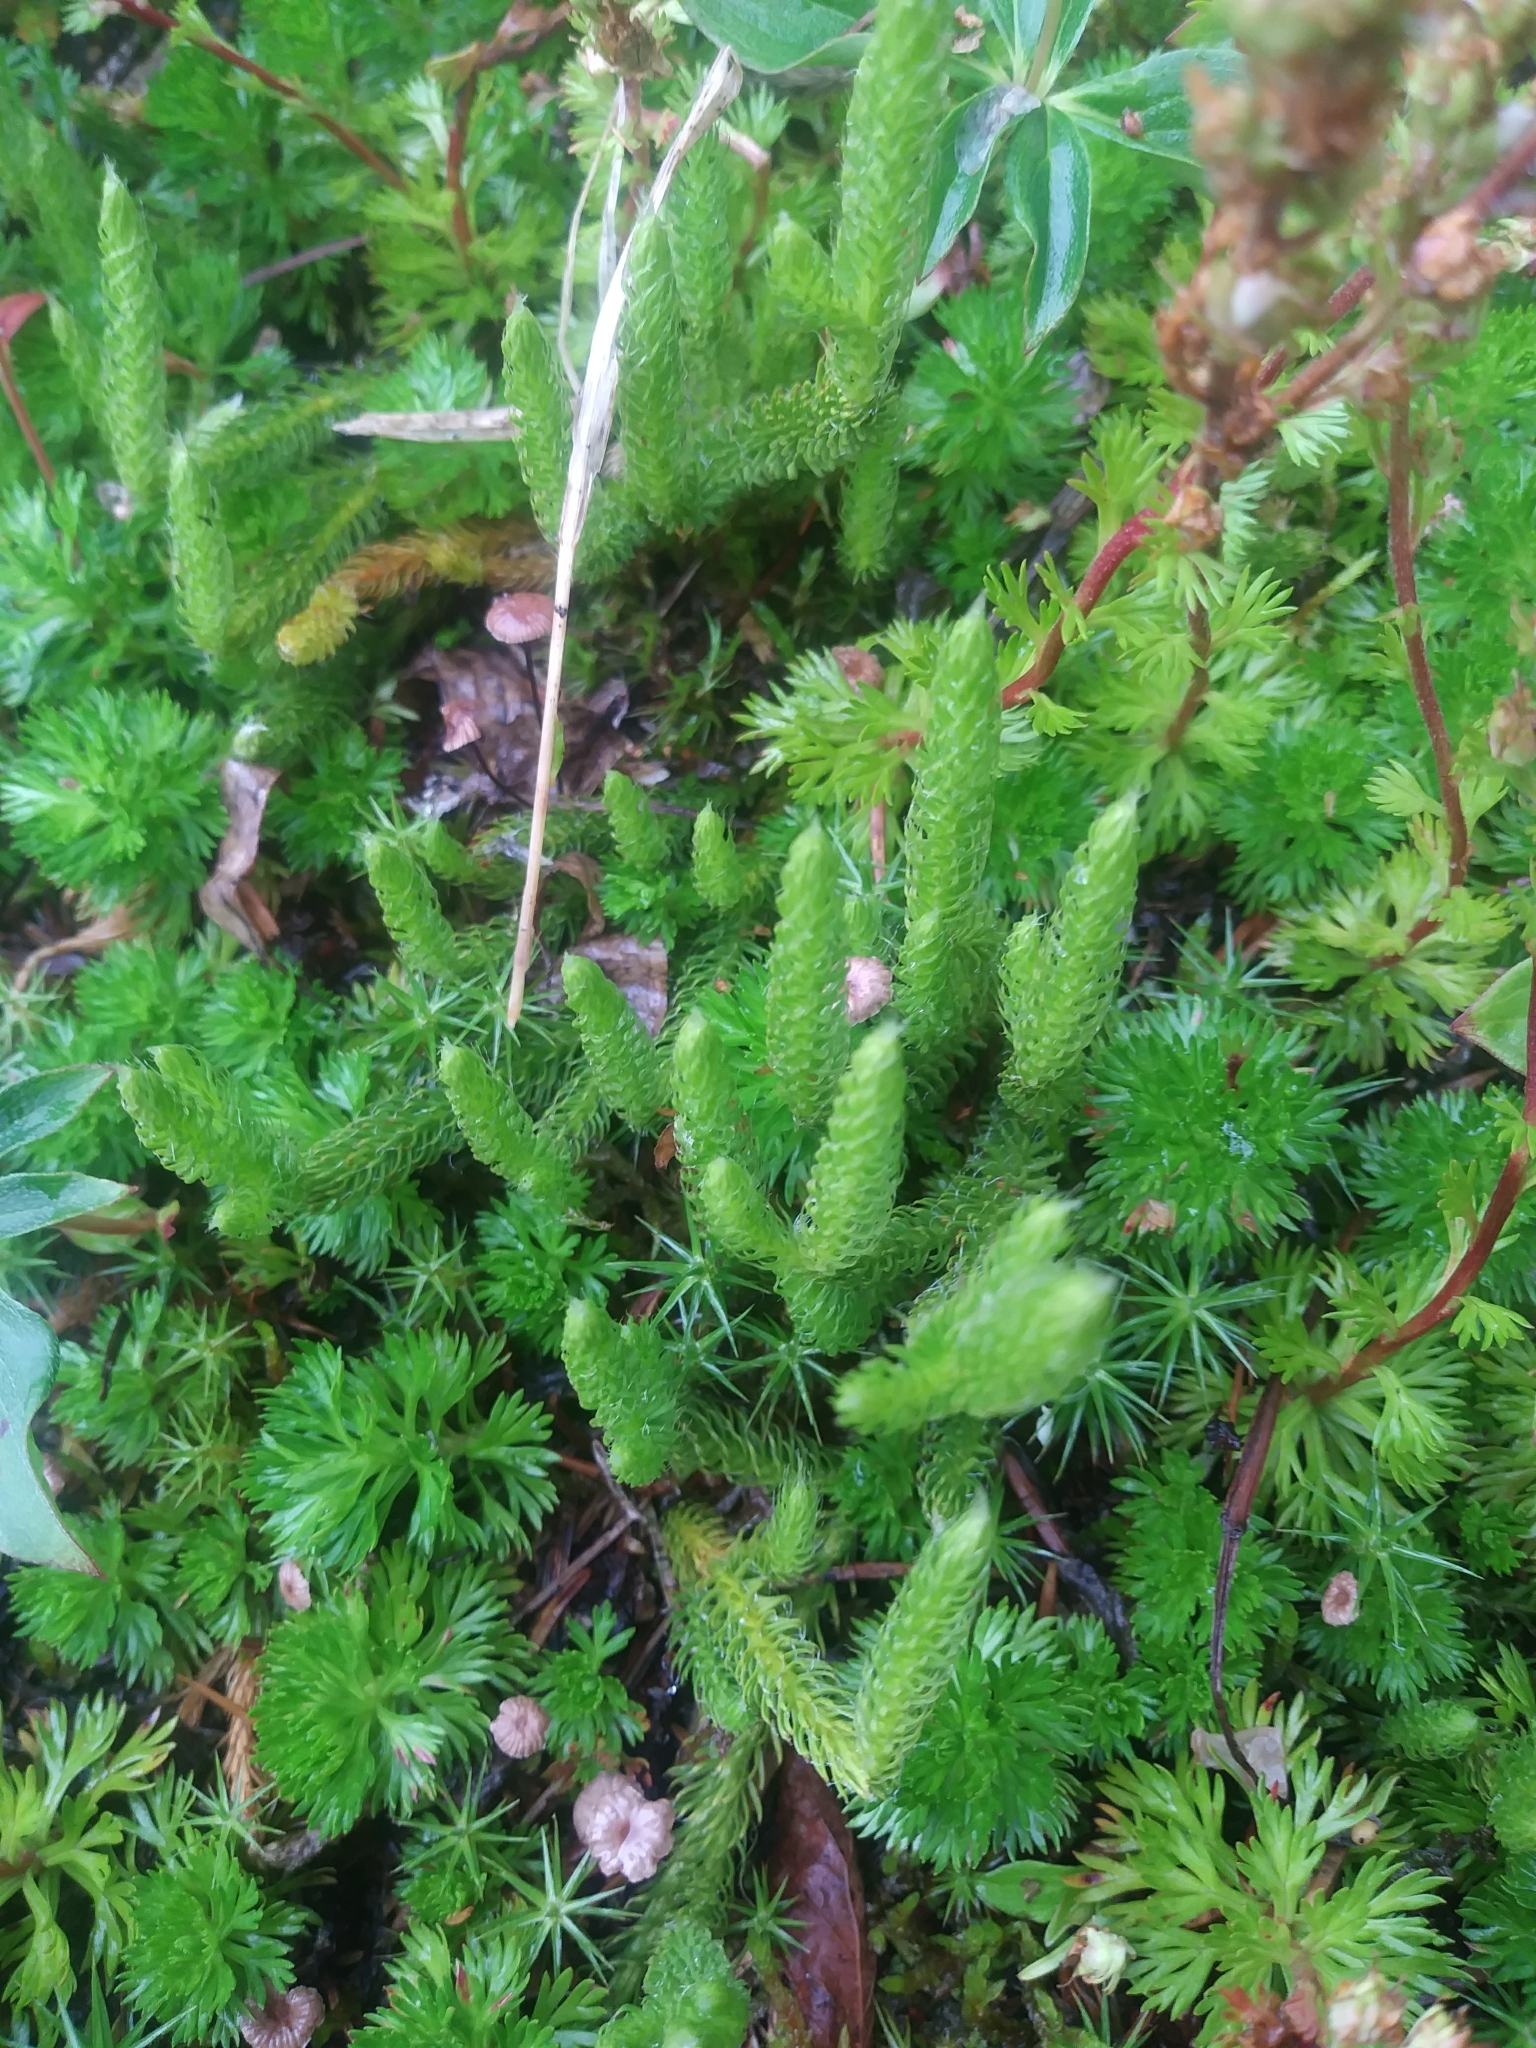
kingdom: Plantae
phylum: Tracheophyta
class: Lycopodiopsida
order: Lycopodiales
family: Lycopodiaceae
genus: Lycopodium
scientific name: Lycopodium lagopus
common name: One-cone clubmoss
